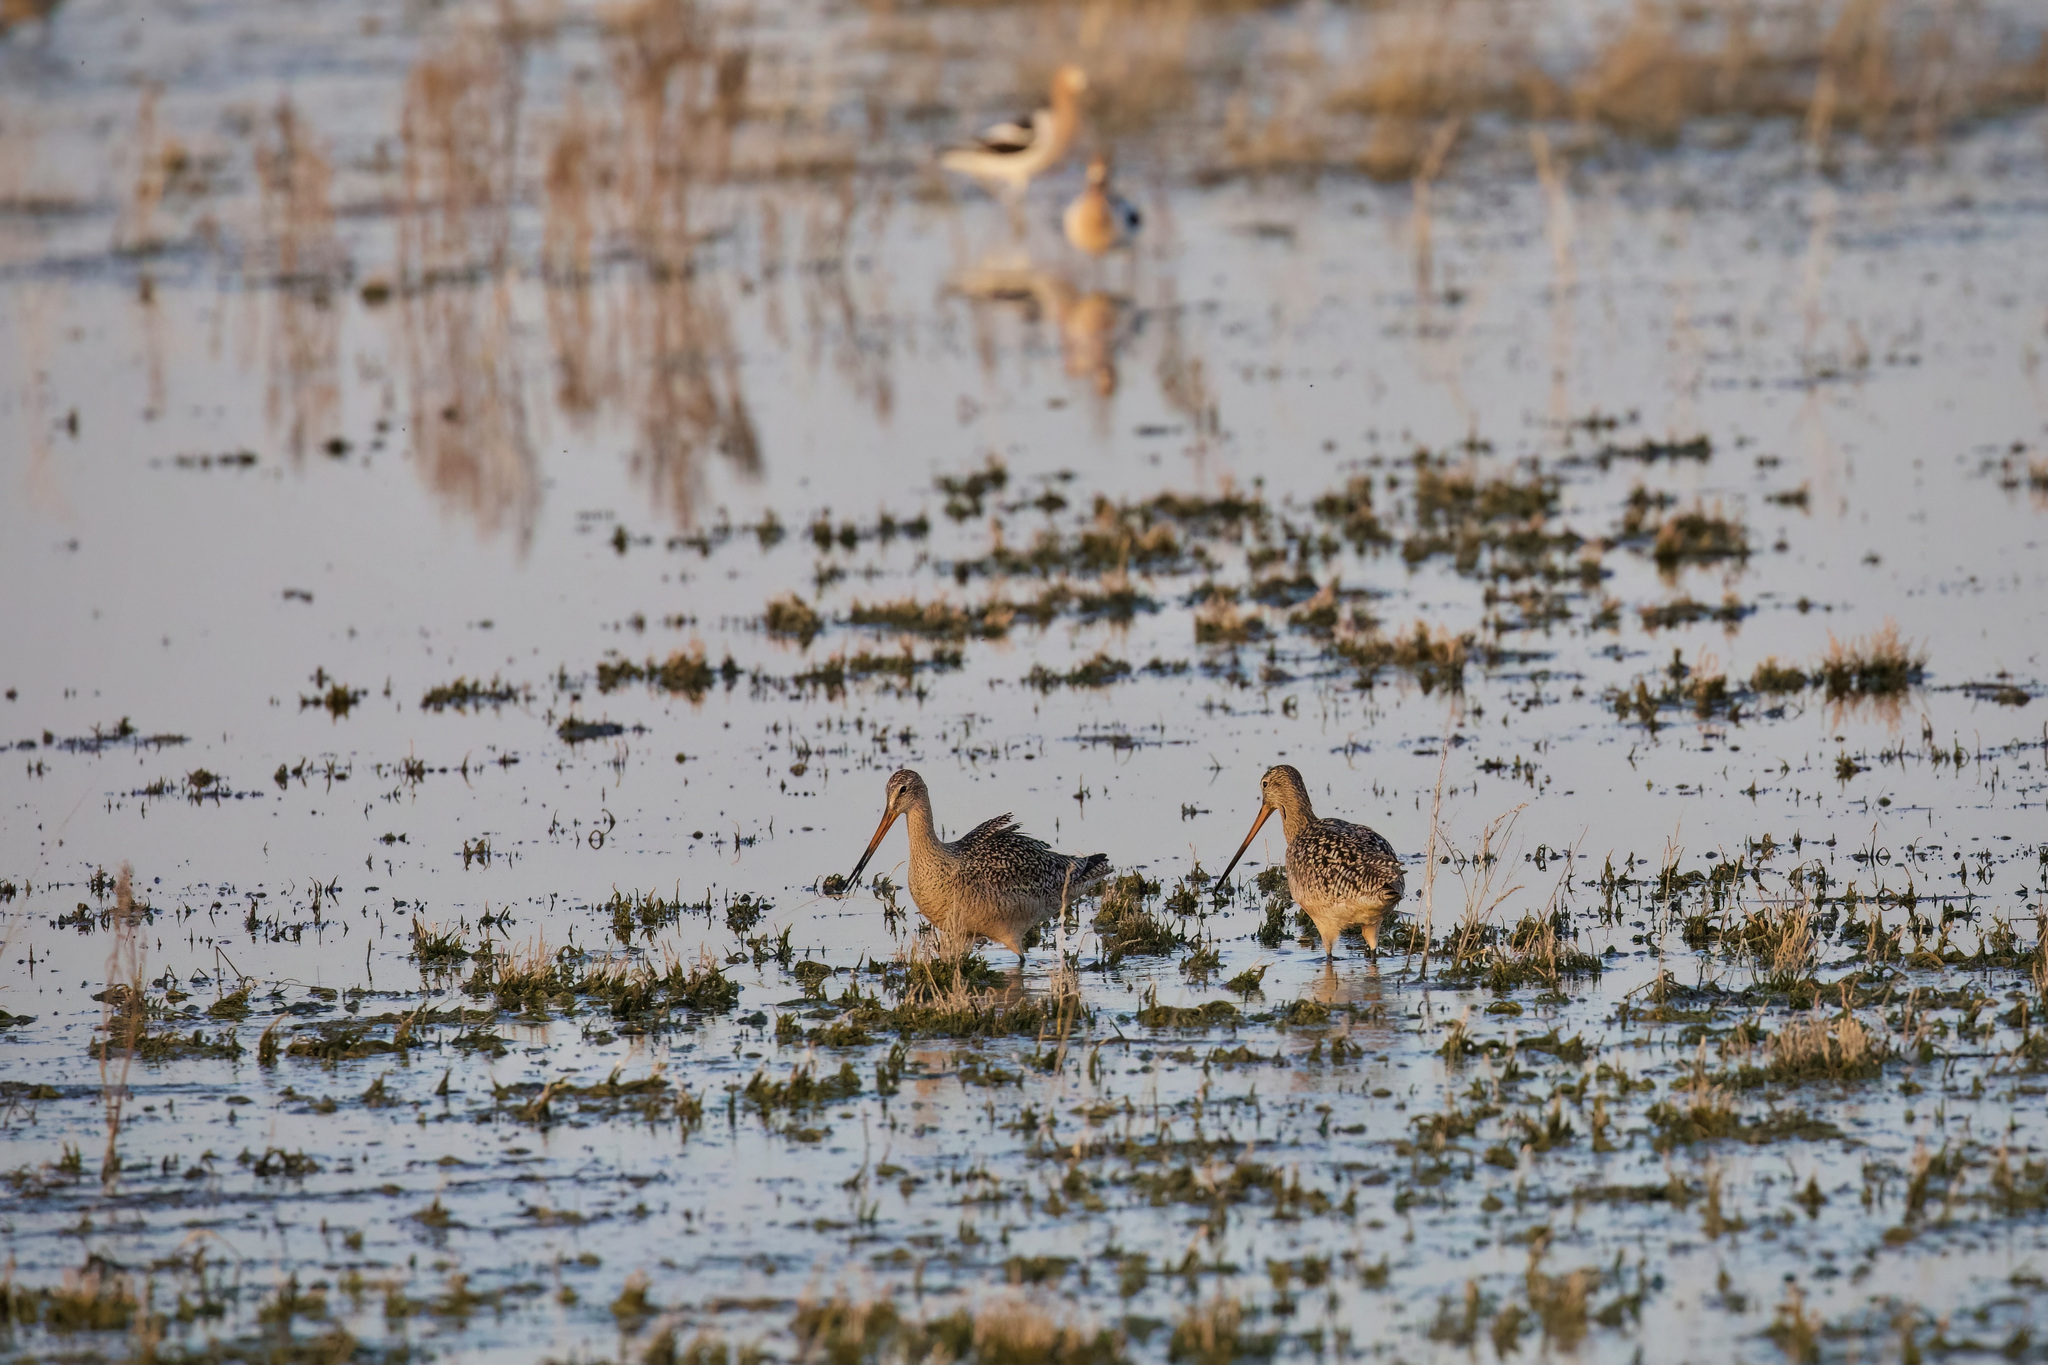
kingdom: Animalia
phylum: Chordata
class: Aves
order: Charadriiformes
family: Scolopacidae
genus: Limosa
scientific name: Limosa fedoa
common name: Marbled godwit
